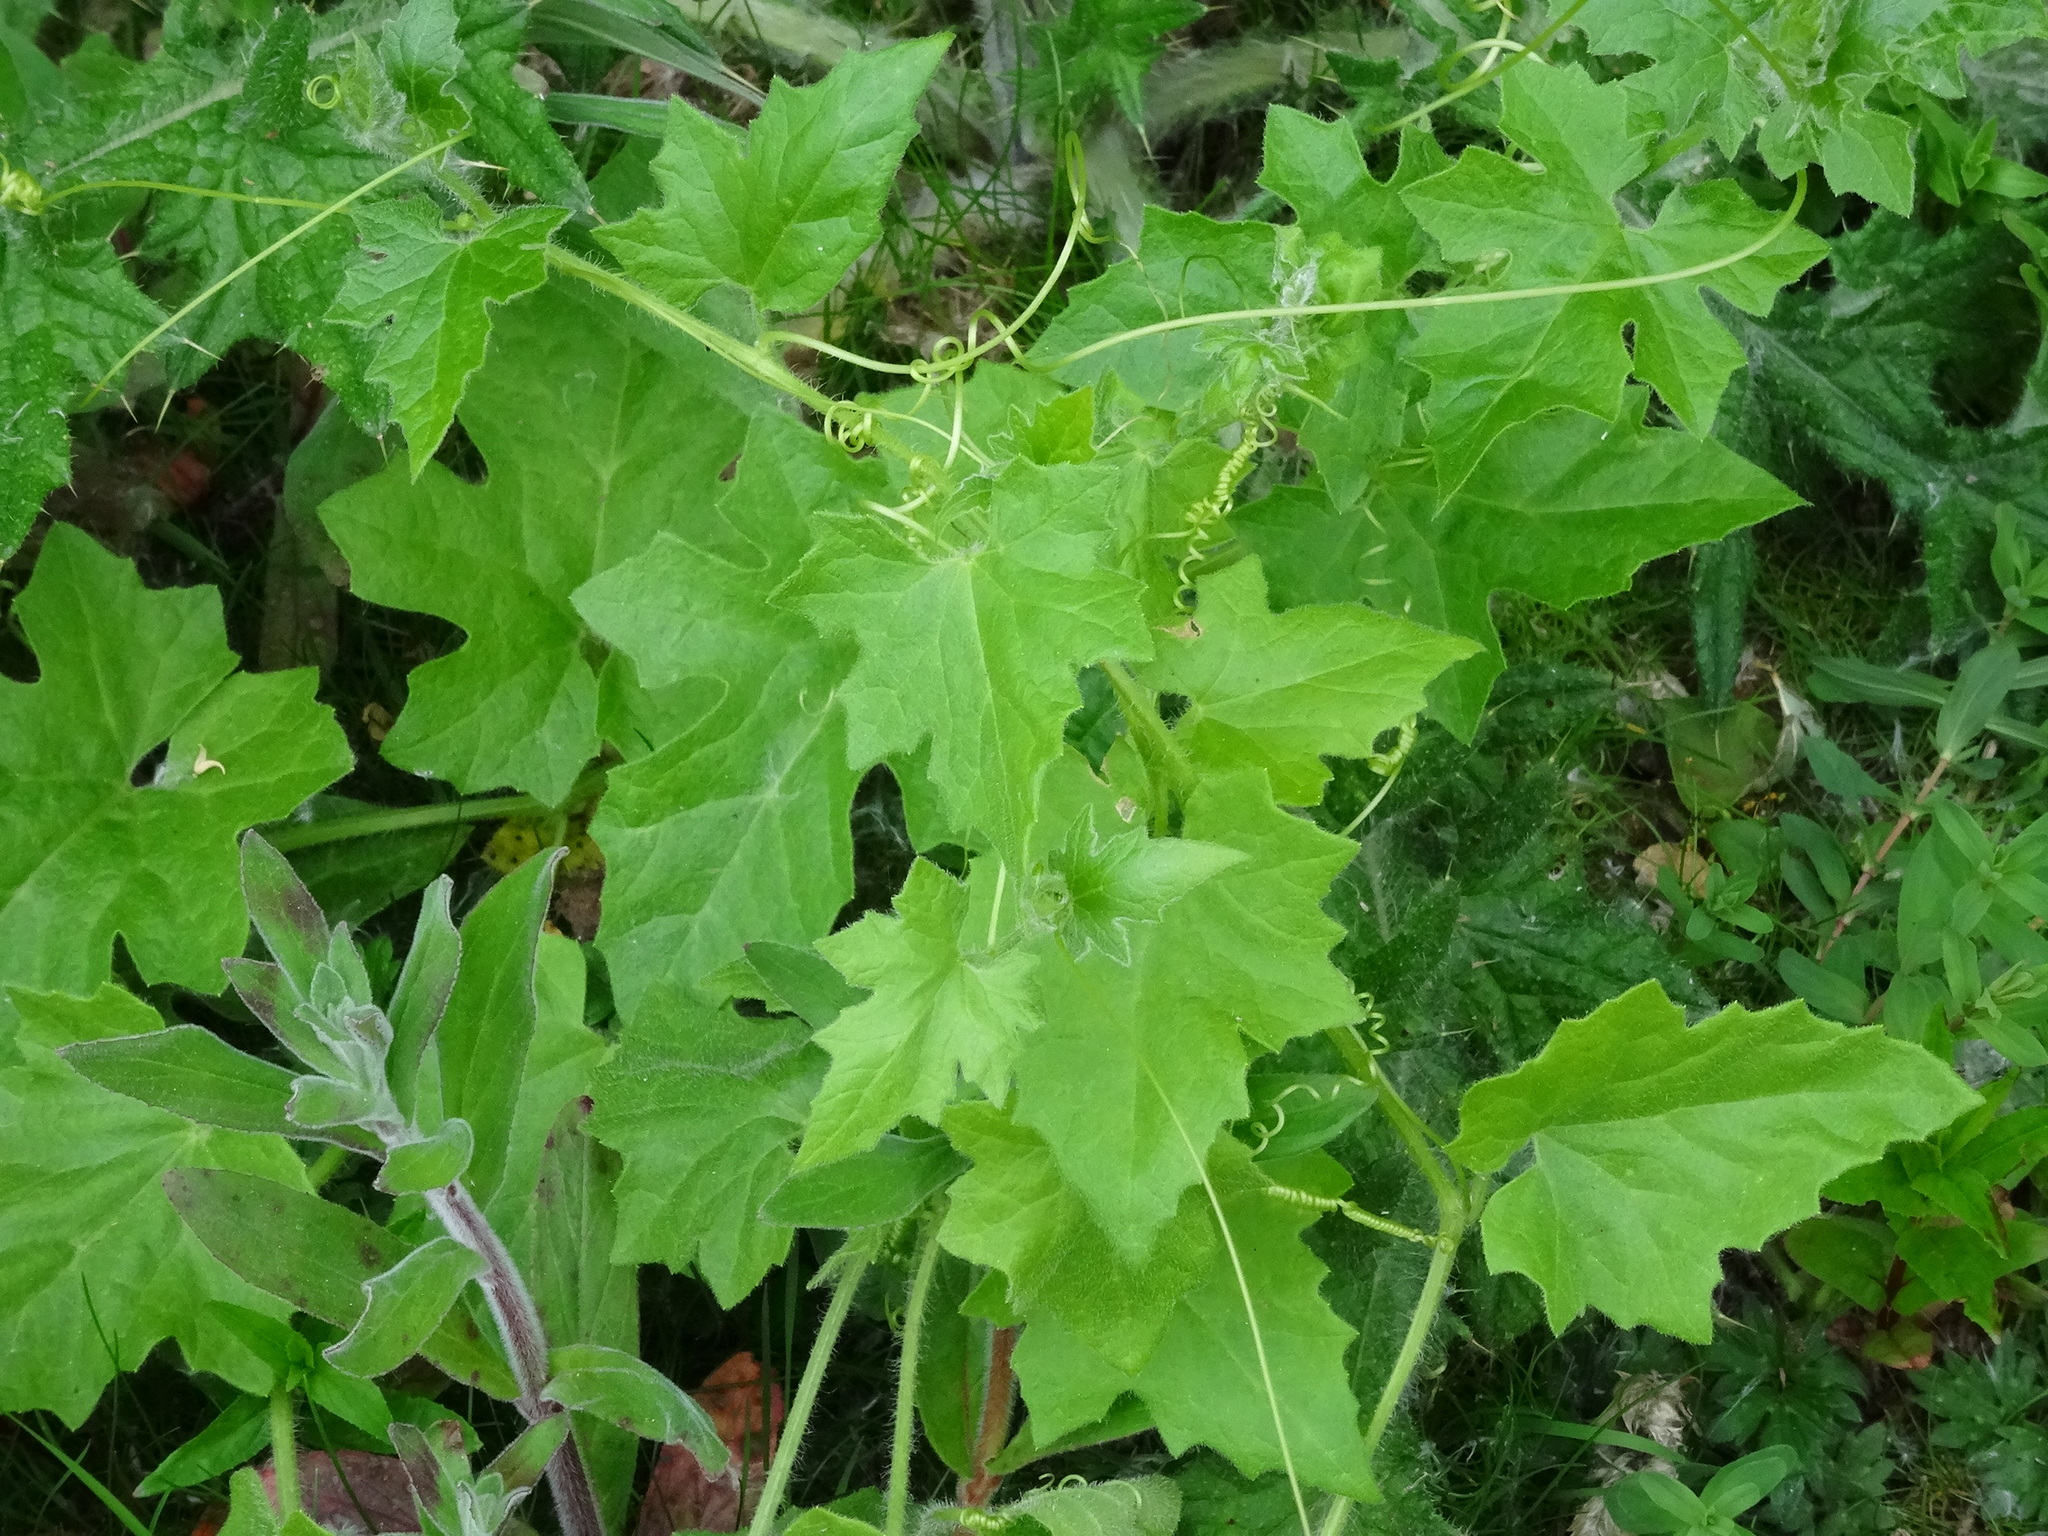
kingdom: Plantae
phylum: Tracheophyta
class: Magnoliopsida
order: Cucurbitales
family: Cucurbitaceae
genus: Bryonia
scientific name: Bryonia cretica
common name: Cretan bryony
